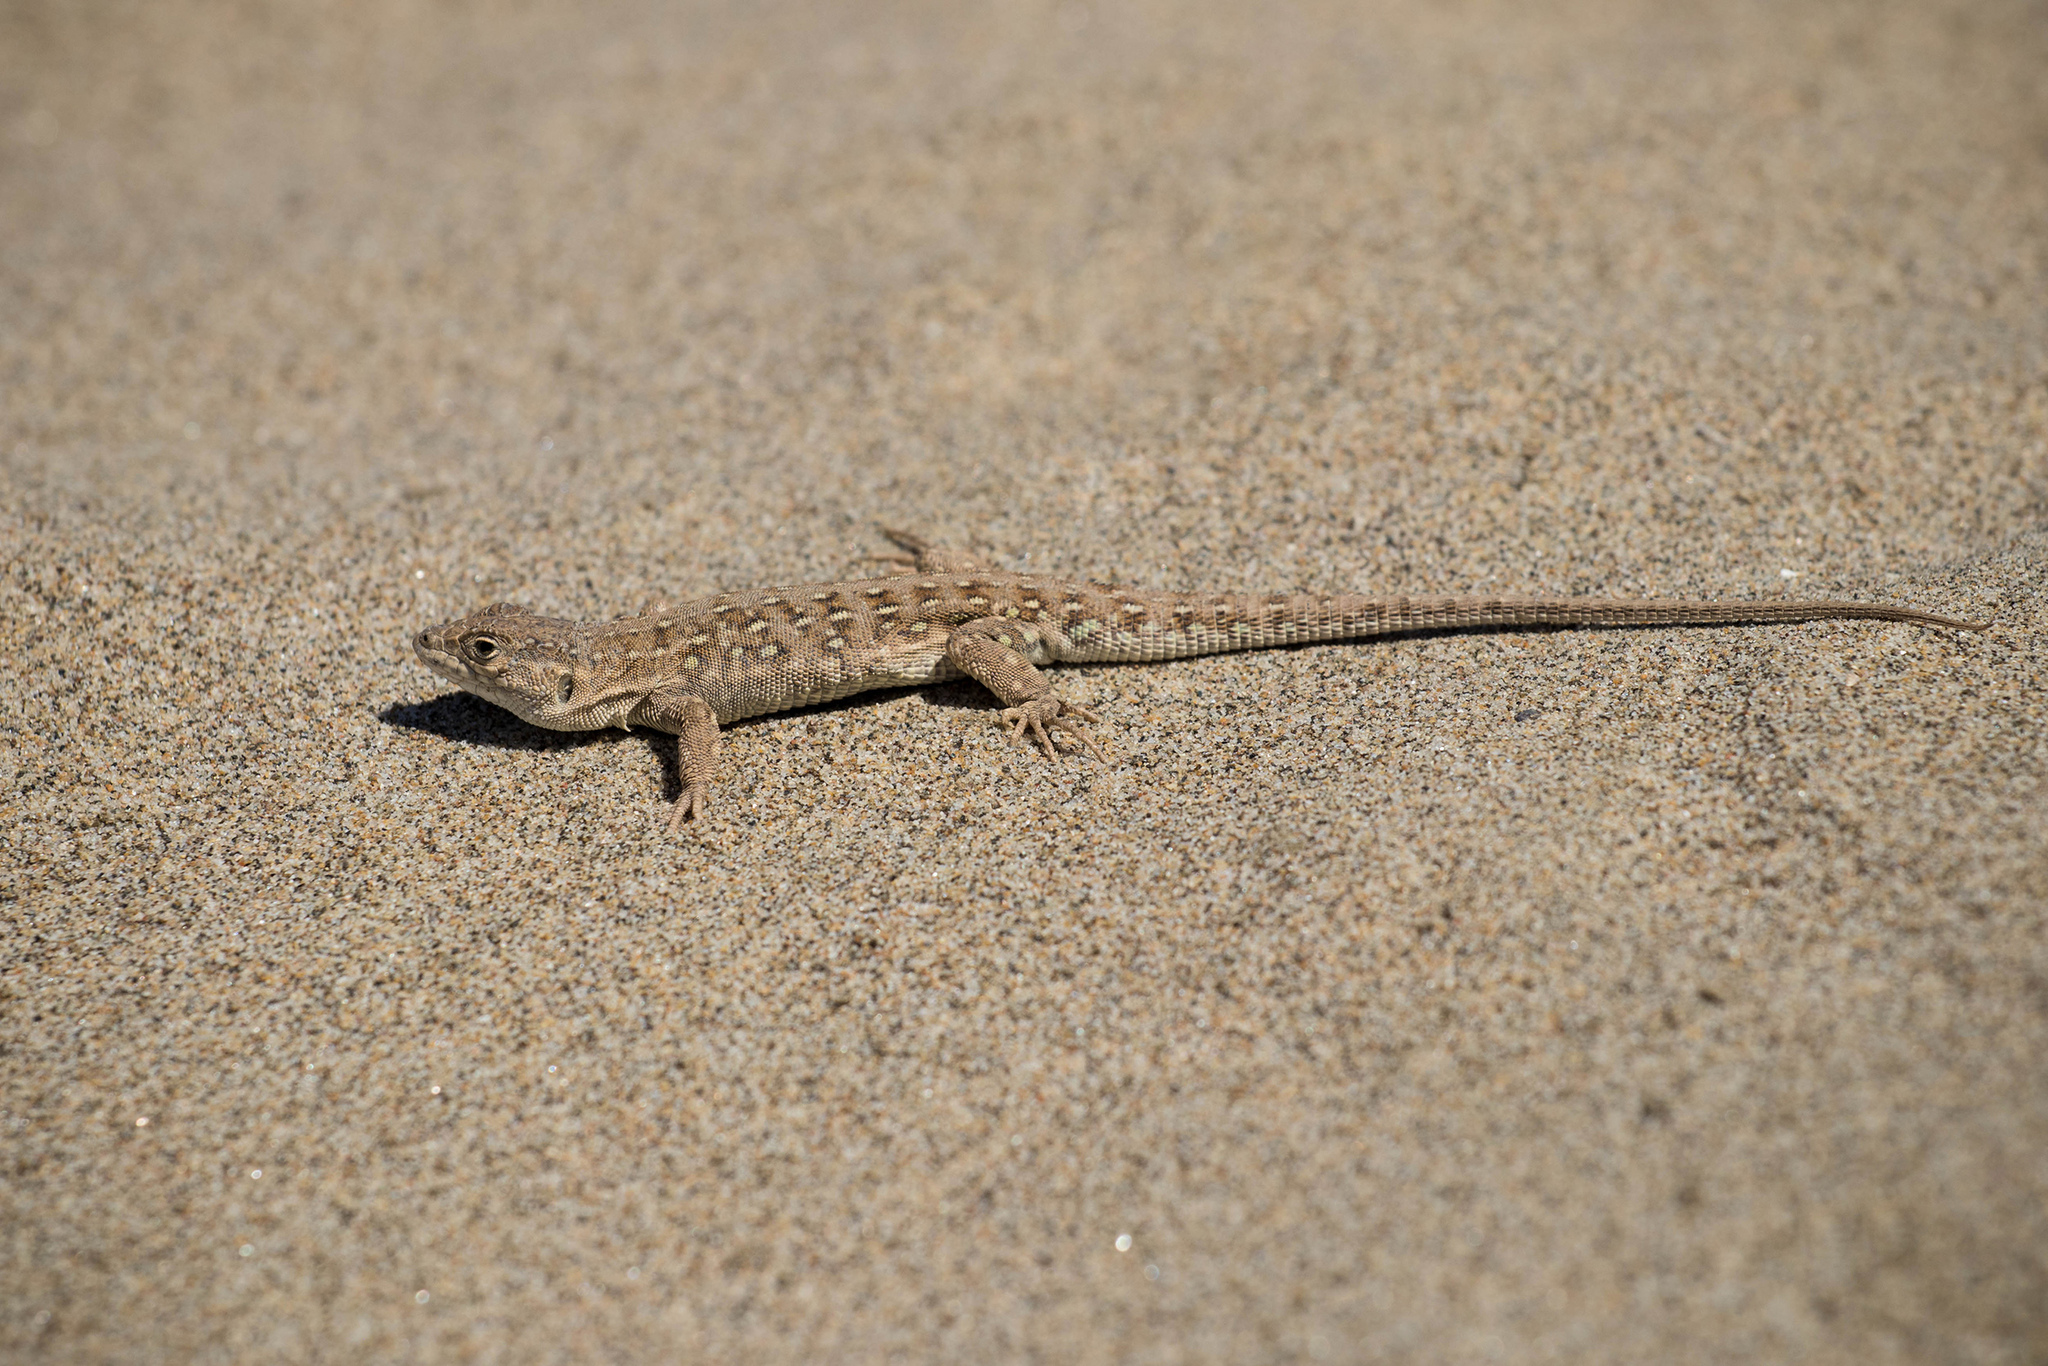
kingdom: Animalia
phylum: Chordata
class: Squamata
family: Lacertidae
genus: Eremias
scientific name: Eremias arguta
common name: Racerunner
